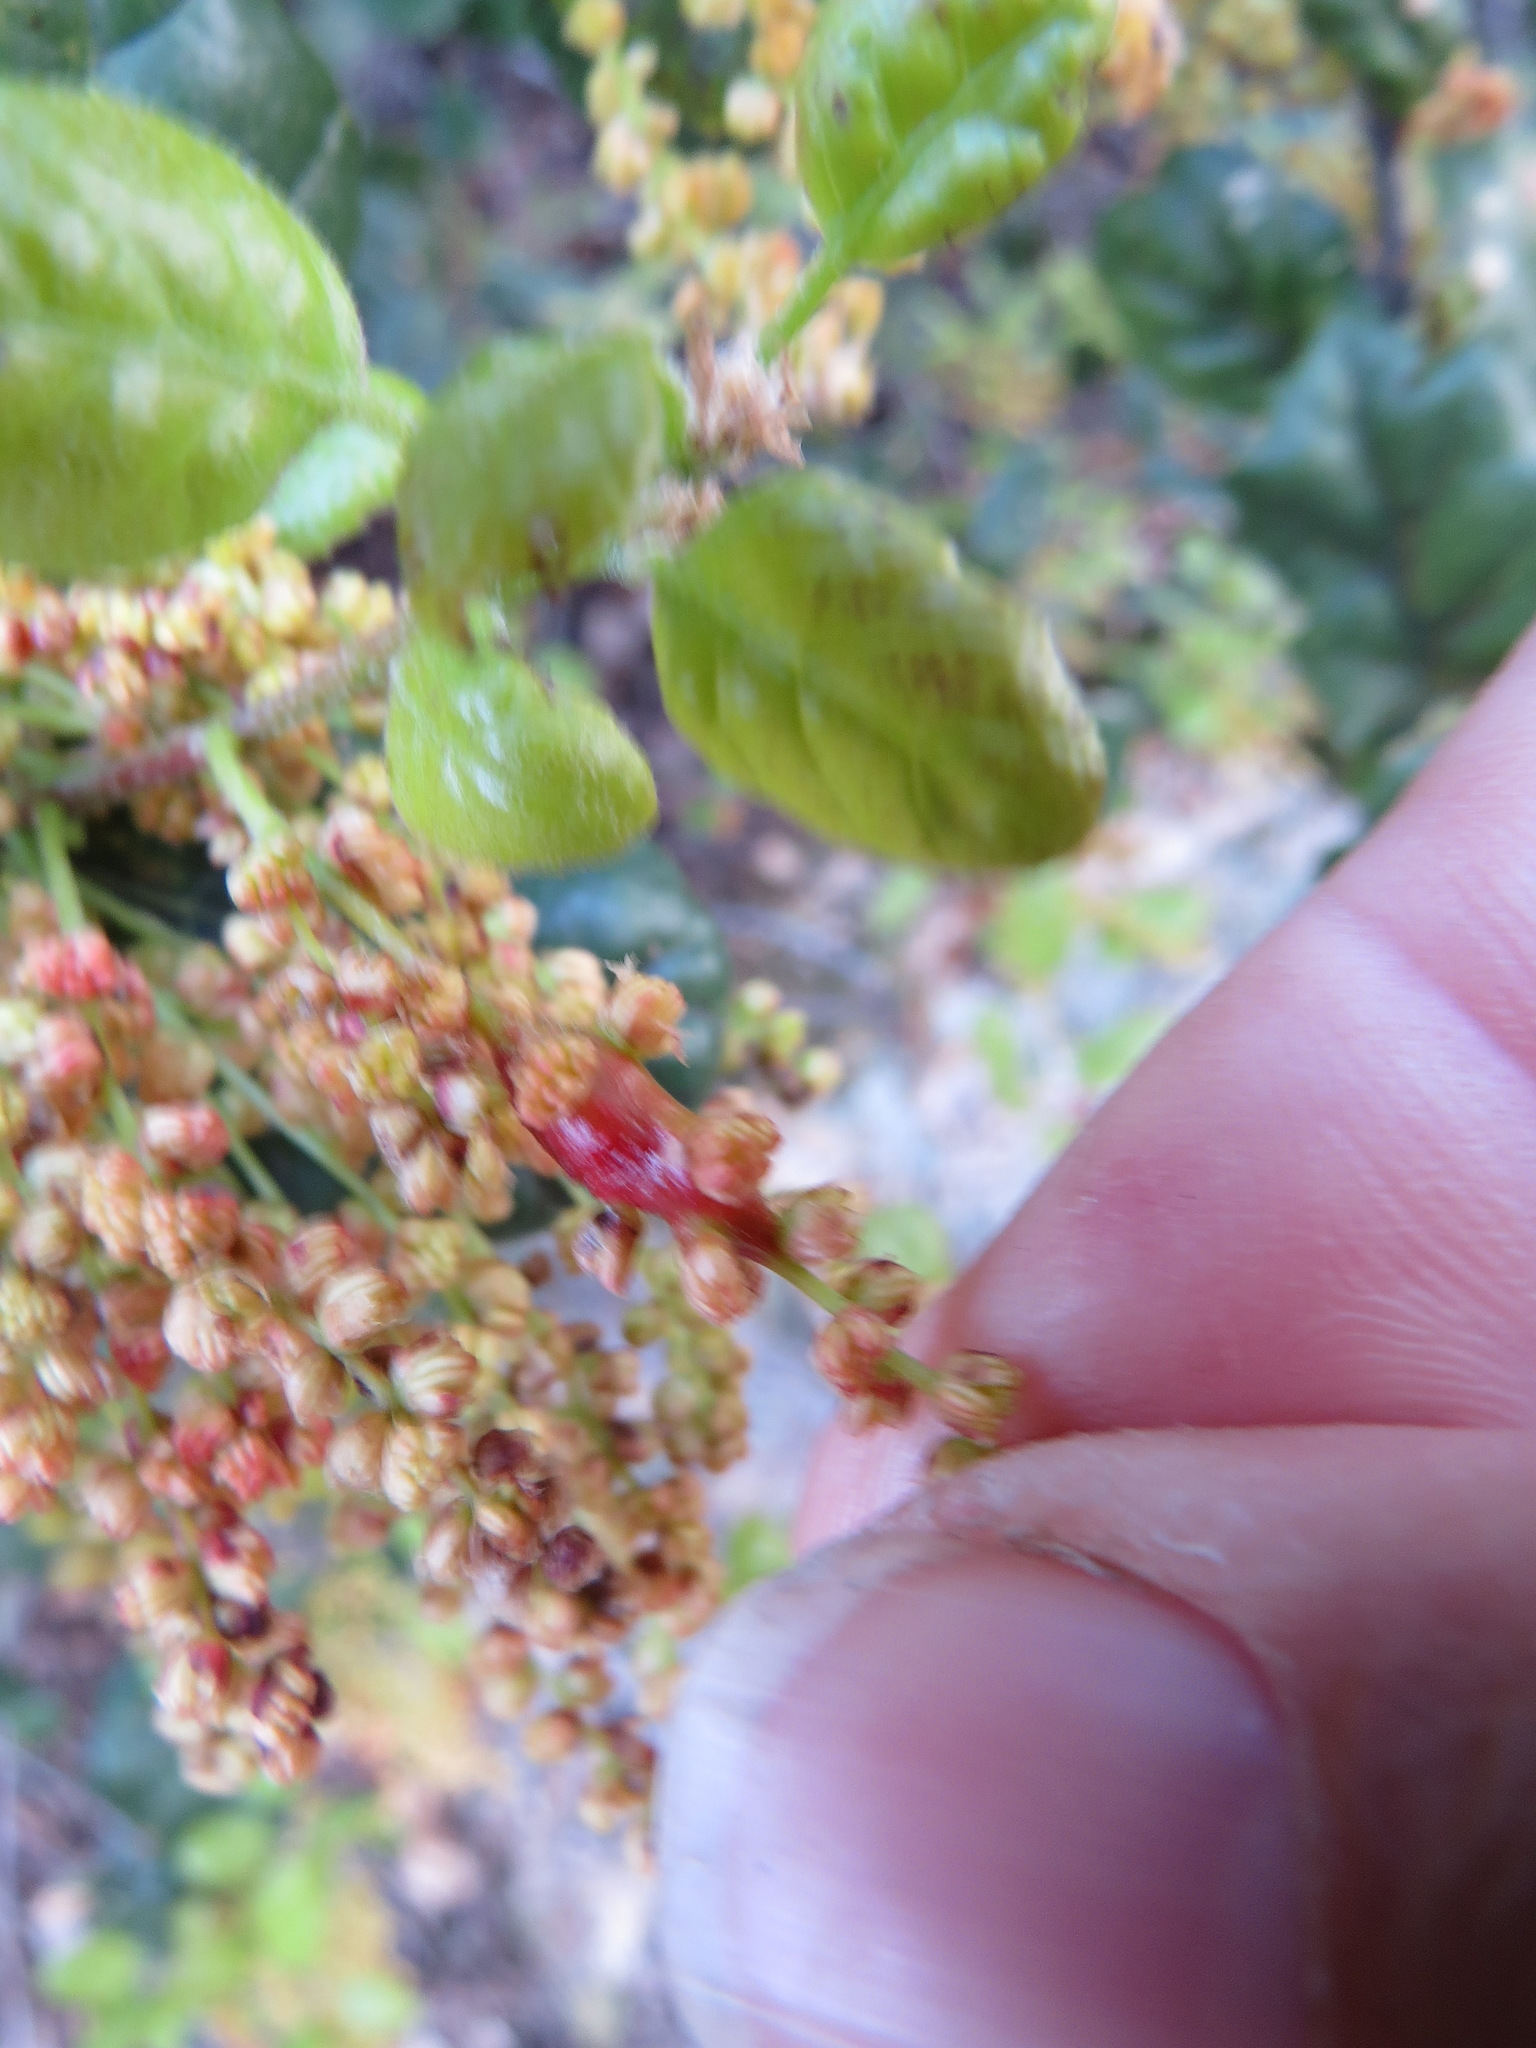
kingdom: Animalia
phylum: Arthropoda
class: Insecta
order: Hymenoptera
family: Cynipidae
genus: Callirhytis
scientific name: Callirhytis
